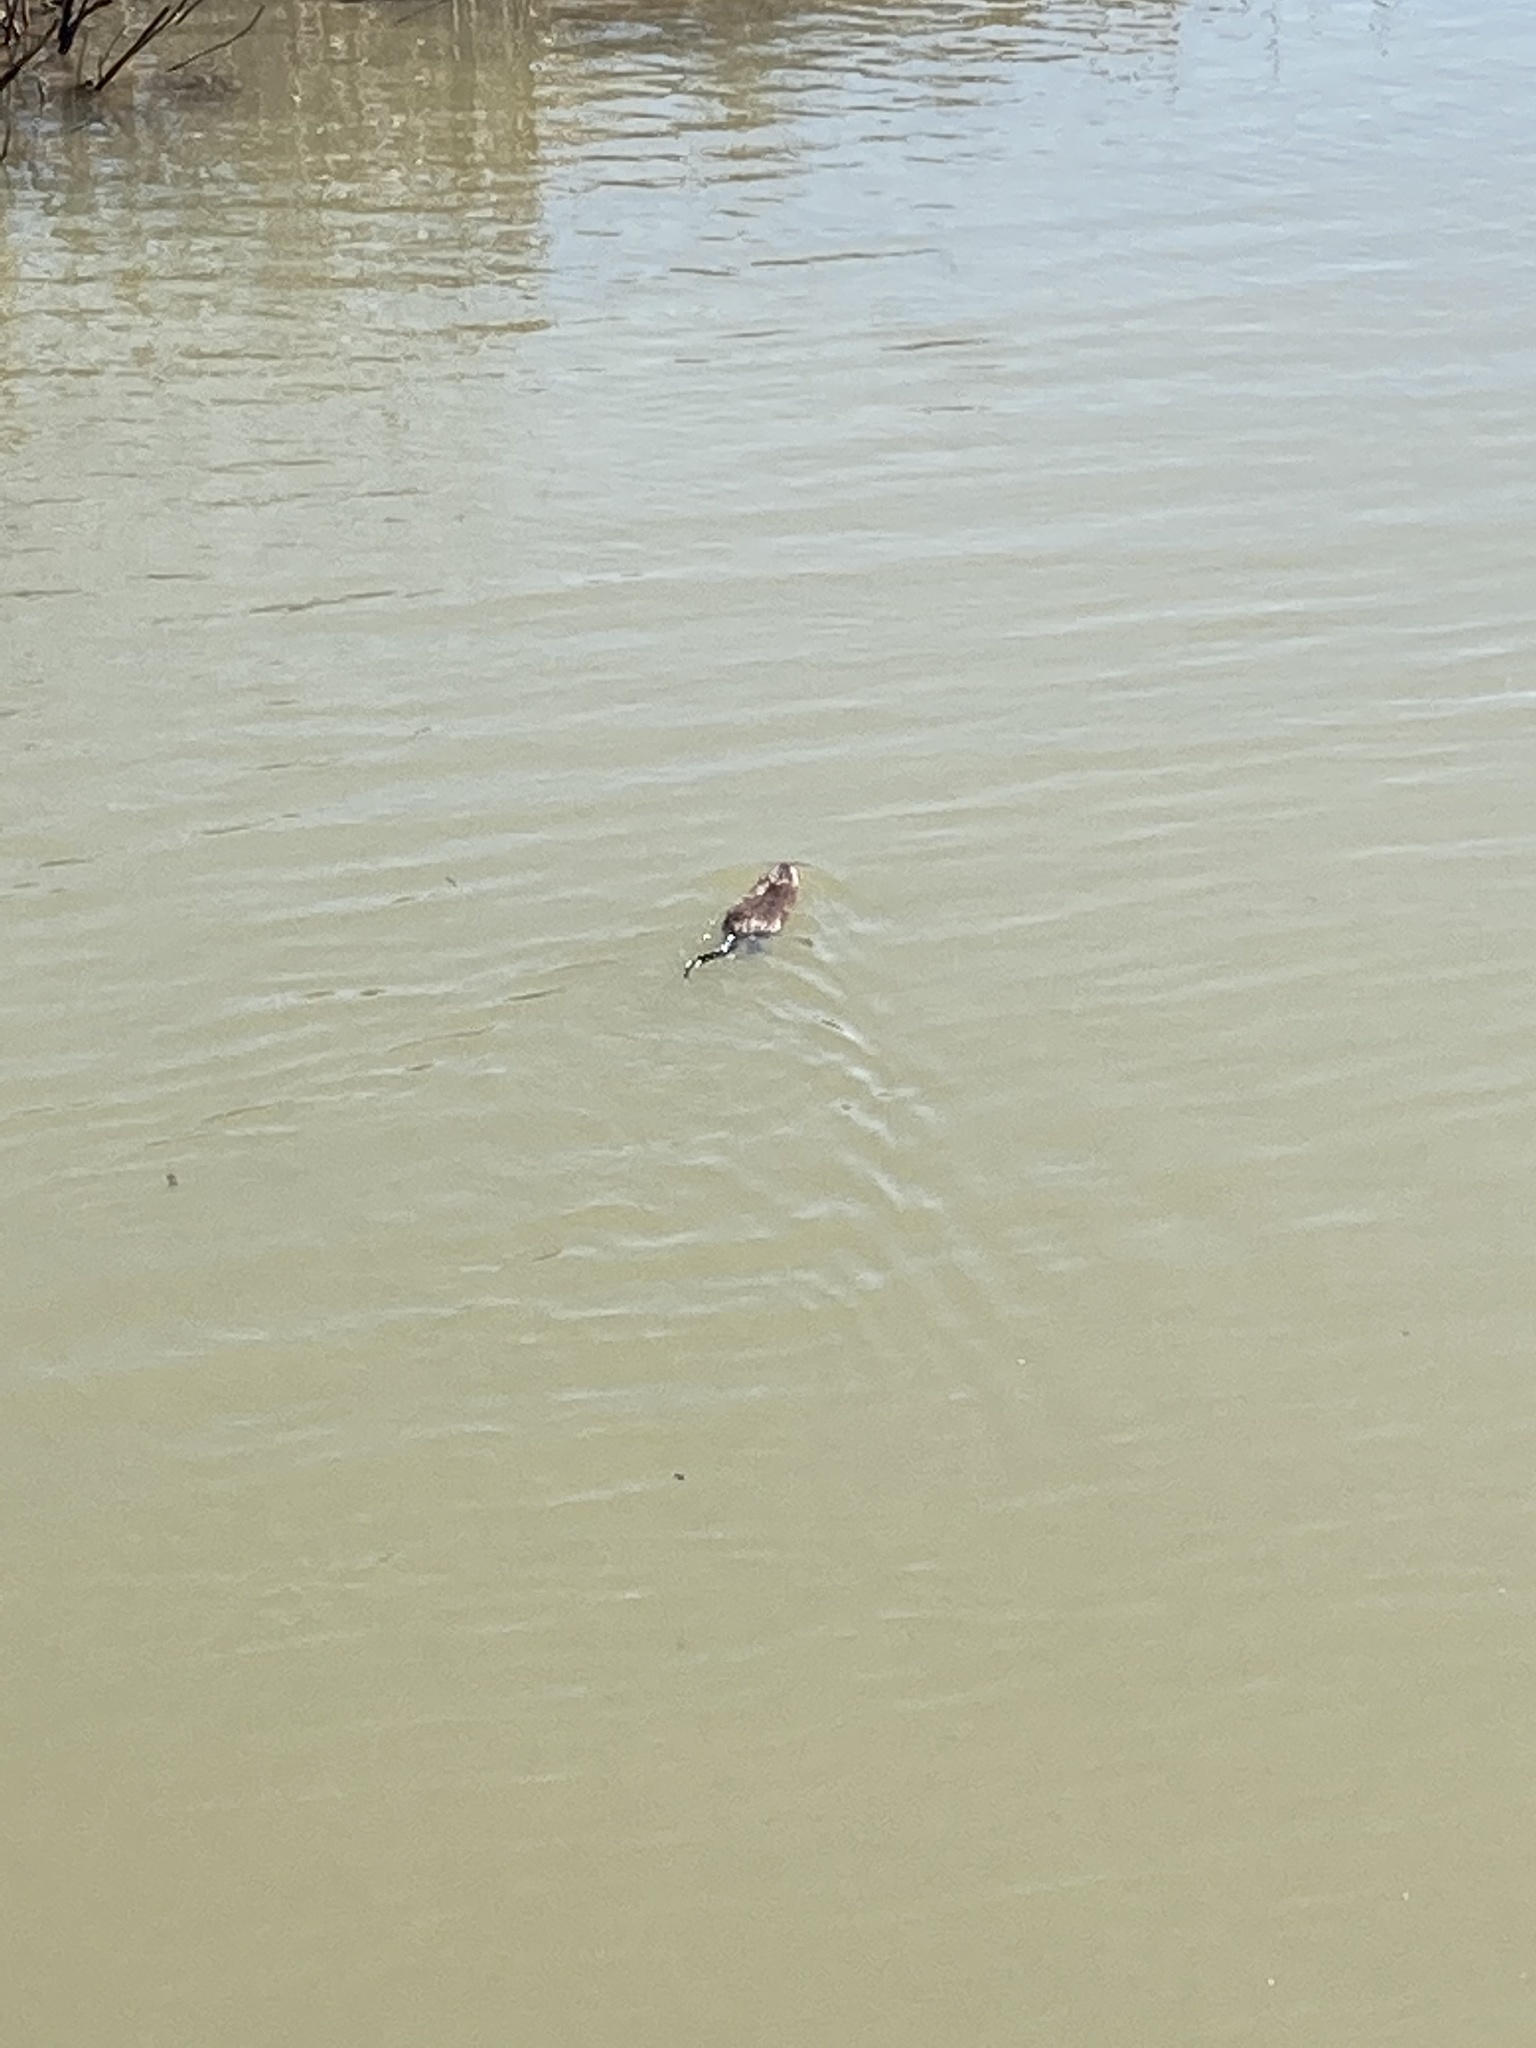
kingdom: Animalia
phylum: Chordata
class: Mammalia
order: Rodentia
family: Cricetidae
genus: Ondatra
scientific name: Ondatra zibethicus
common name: Muskrat
